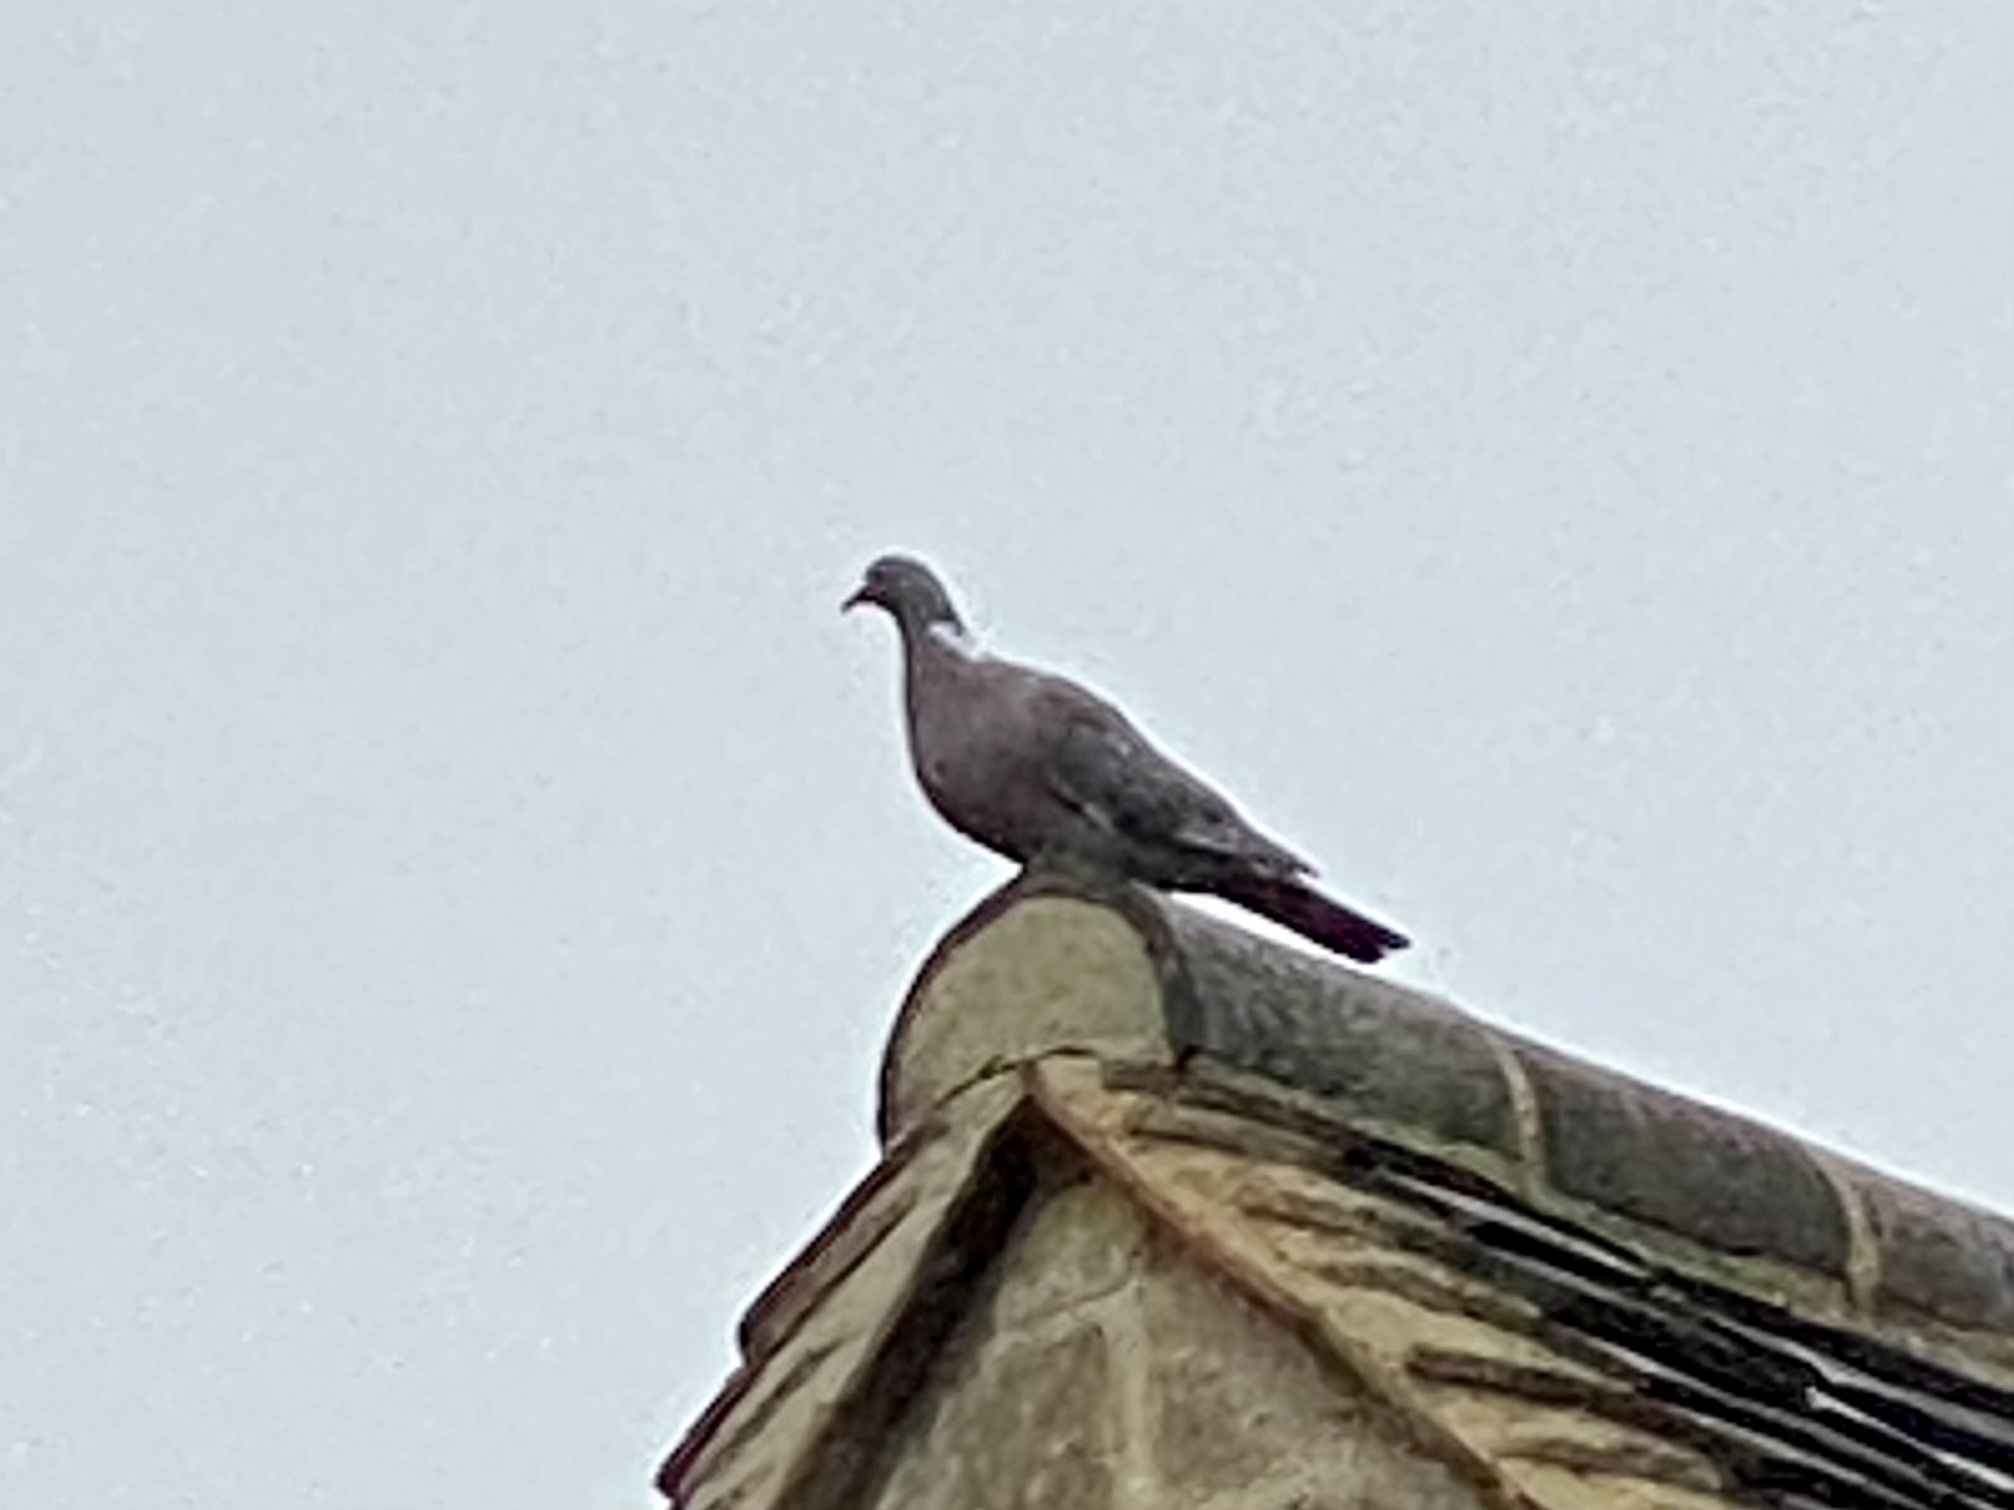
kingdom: Animalia
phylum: Chordata
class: Aves
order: Columbiformes
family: Columbidae
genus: Columba
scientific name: Columba palumbus
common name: Common wood pigeon
